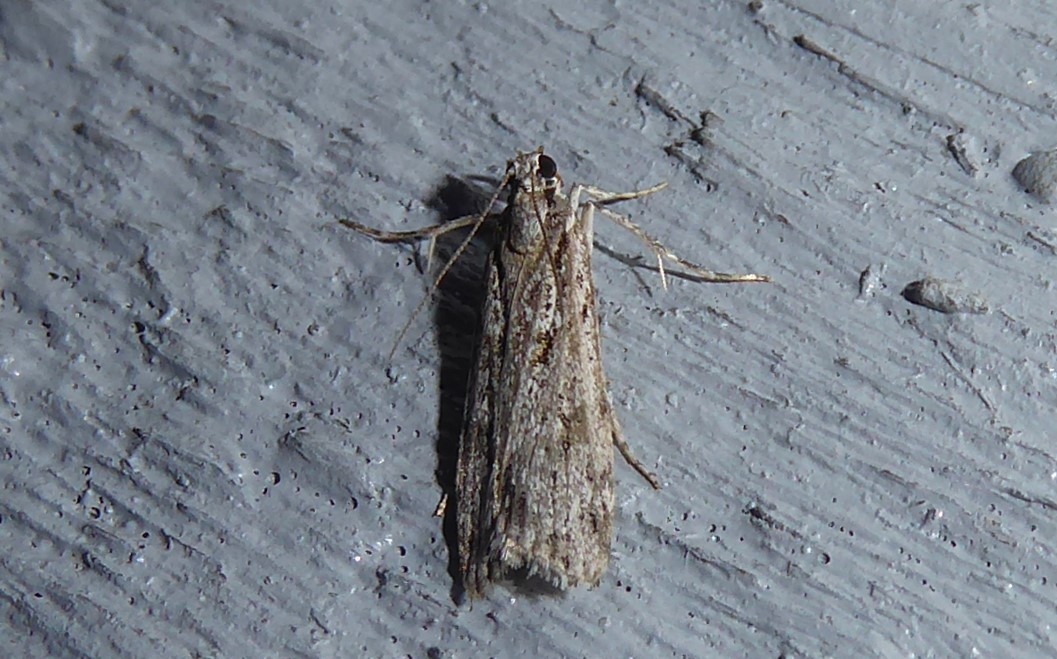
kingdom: Animalia
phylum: Arthropoda
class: Insecta
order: Lepidoptera
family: Crambidae
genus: Scoparia
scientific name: Scoparia chalicodes
